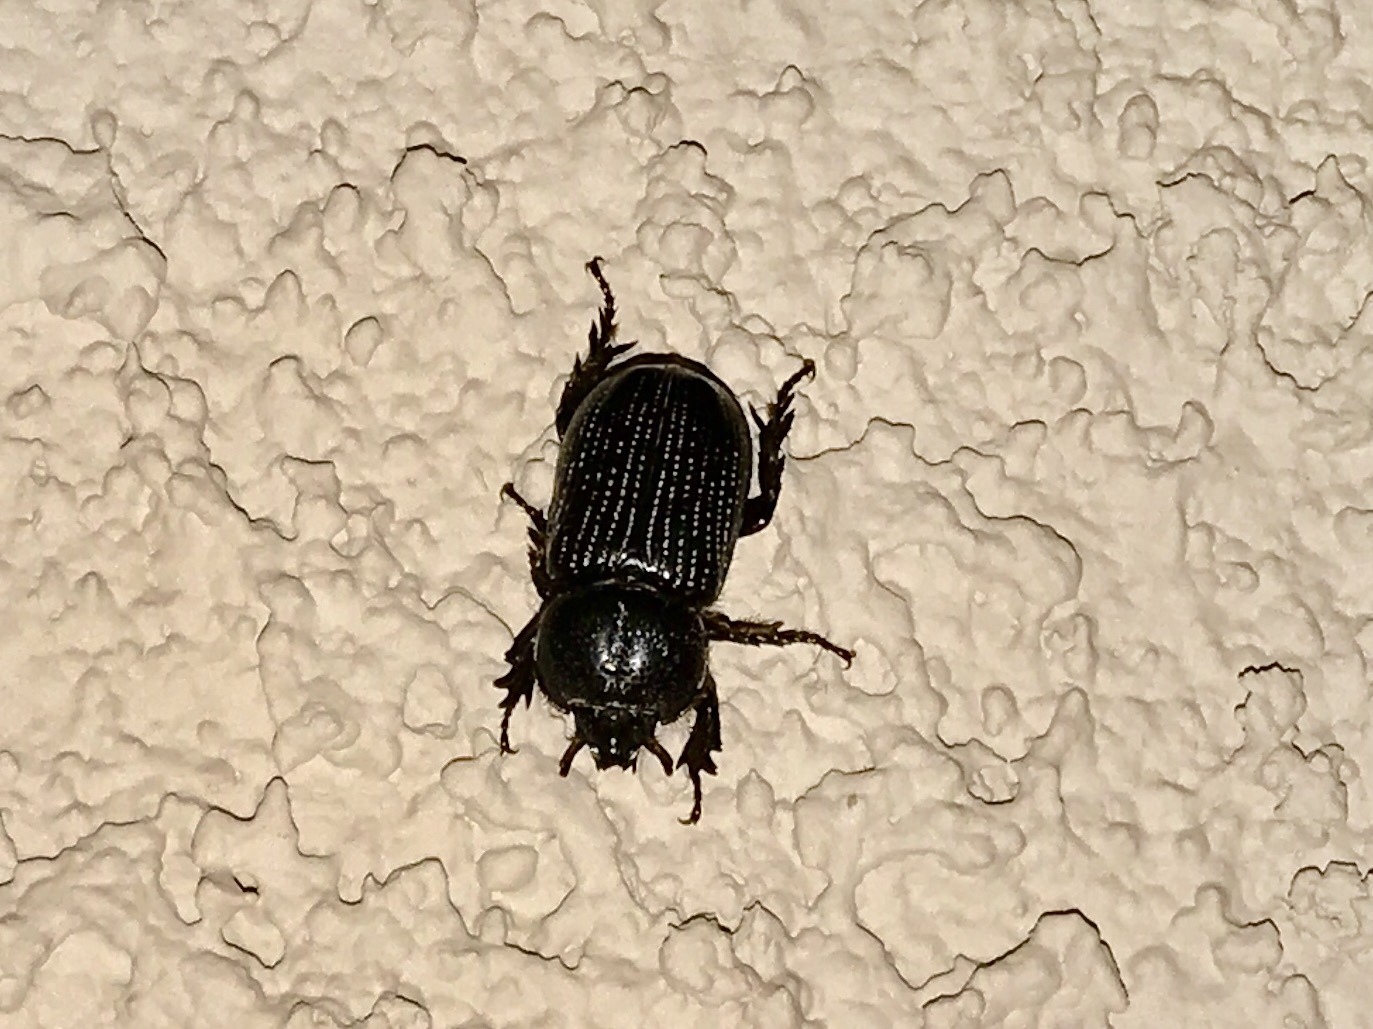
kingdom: Animalia
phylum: Arthropoda
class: Insecta
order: Coleoptera
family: Scarabaeidae
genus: Hemiphileurus
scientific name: Hemiphileurus illatus
